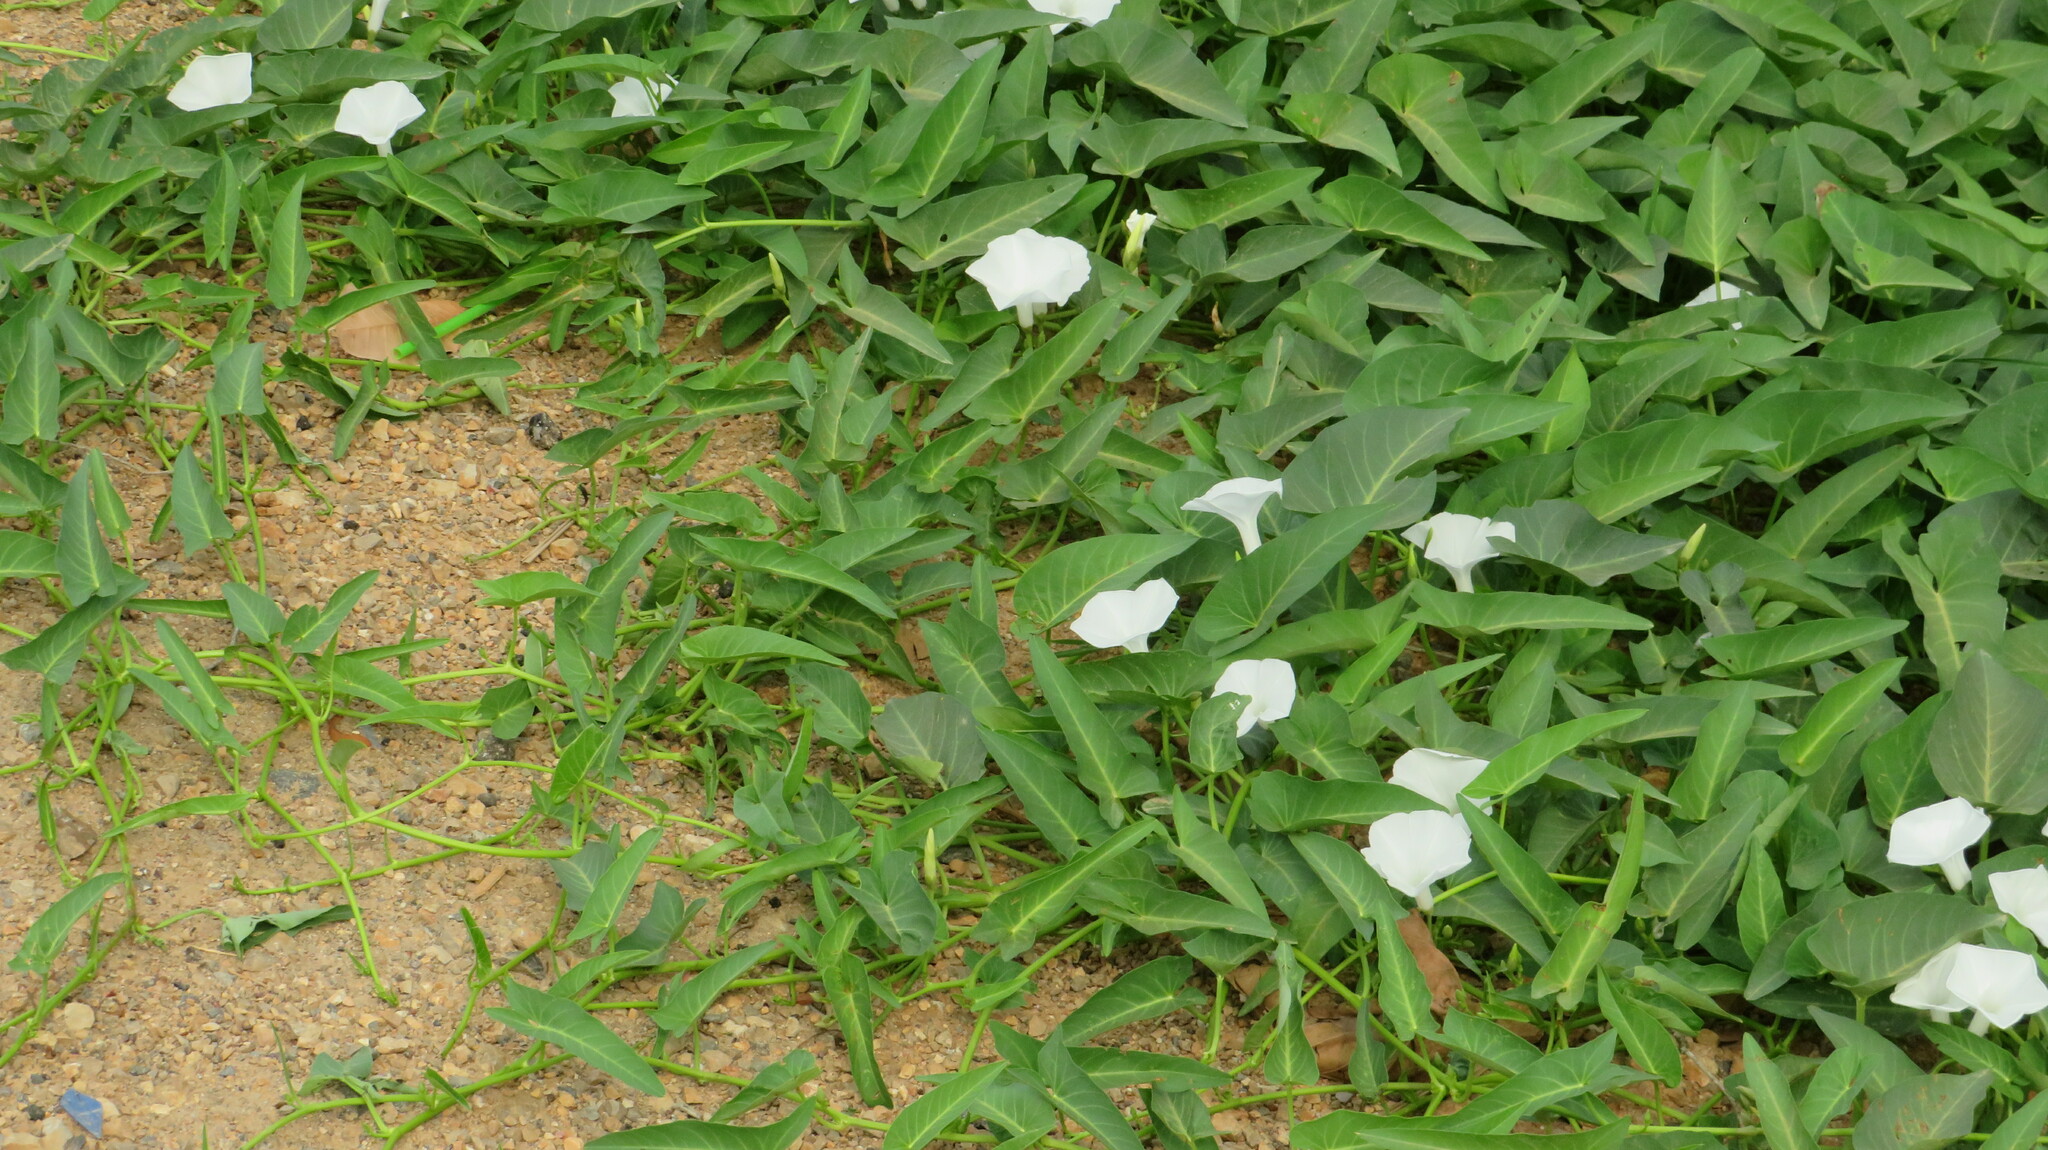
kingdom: Plantae
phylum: Tracheophyta
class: Magnoliopsida
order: Solanales
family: Convolvulaceae
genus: Ipomoea
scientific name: Ipomoea aquatica
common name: Swamp morning-glory
